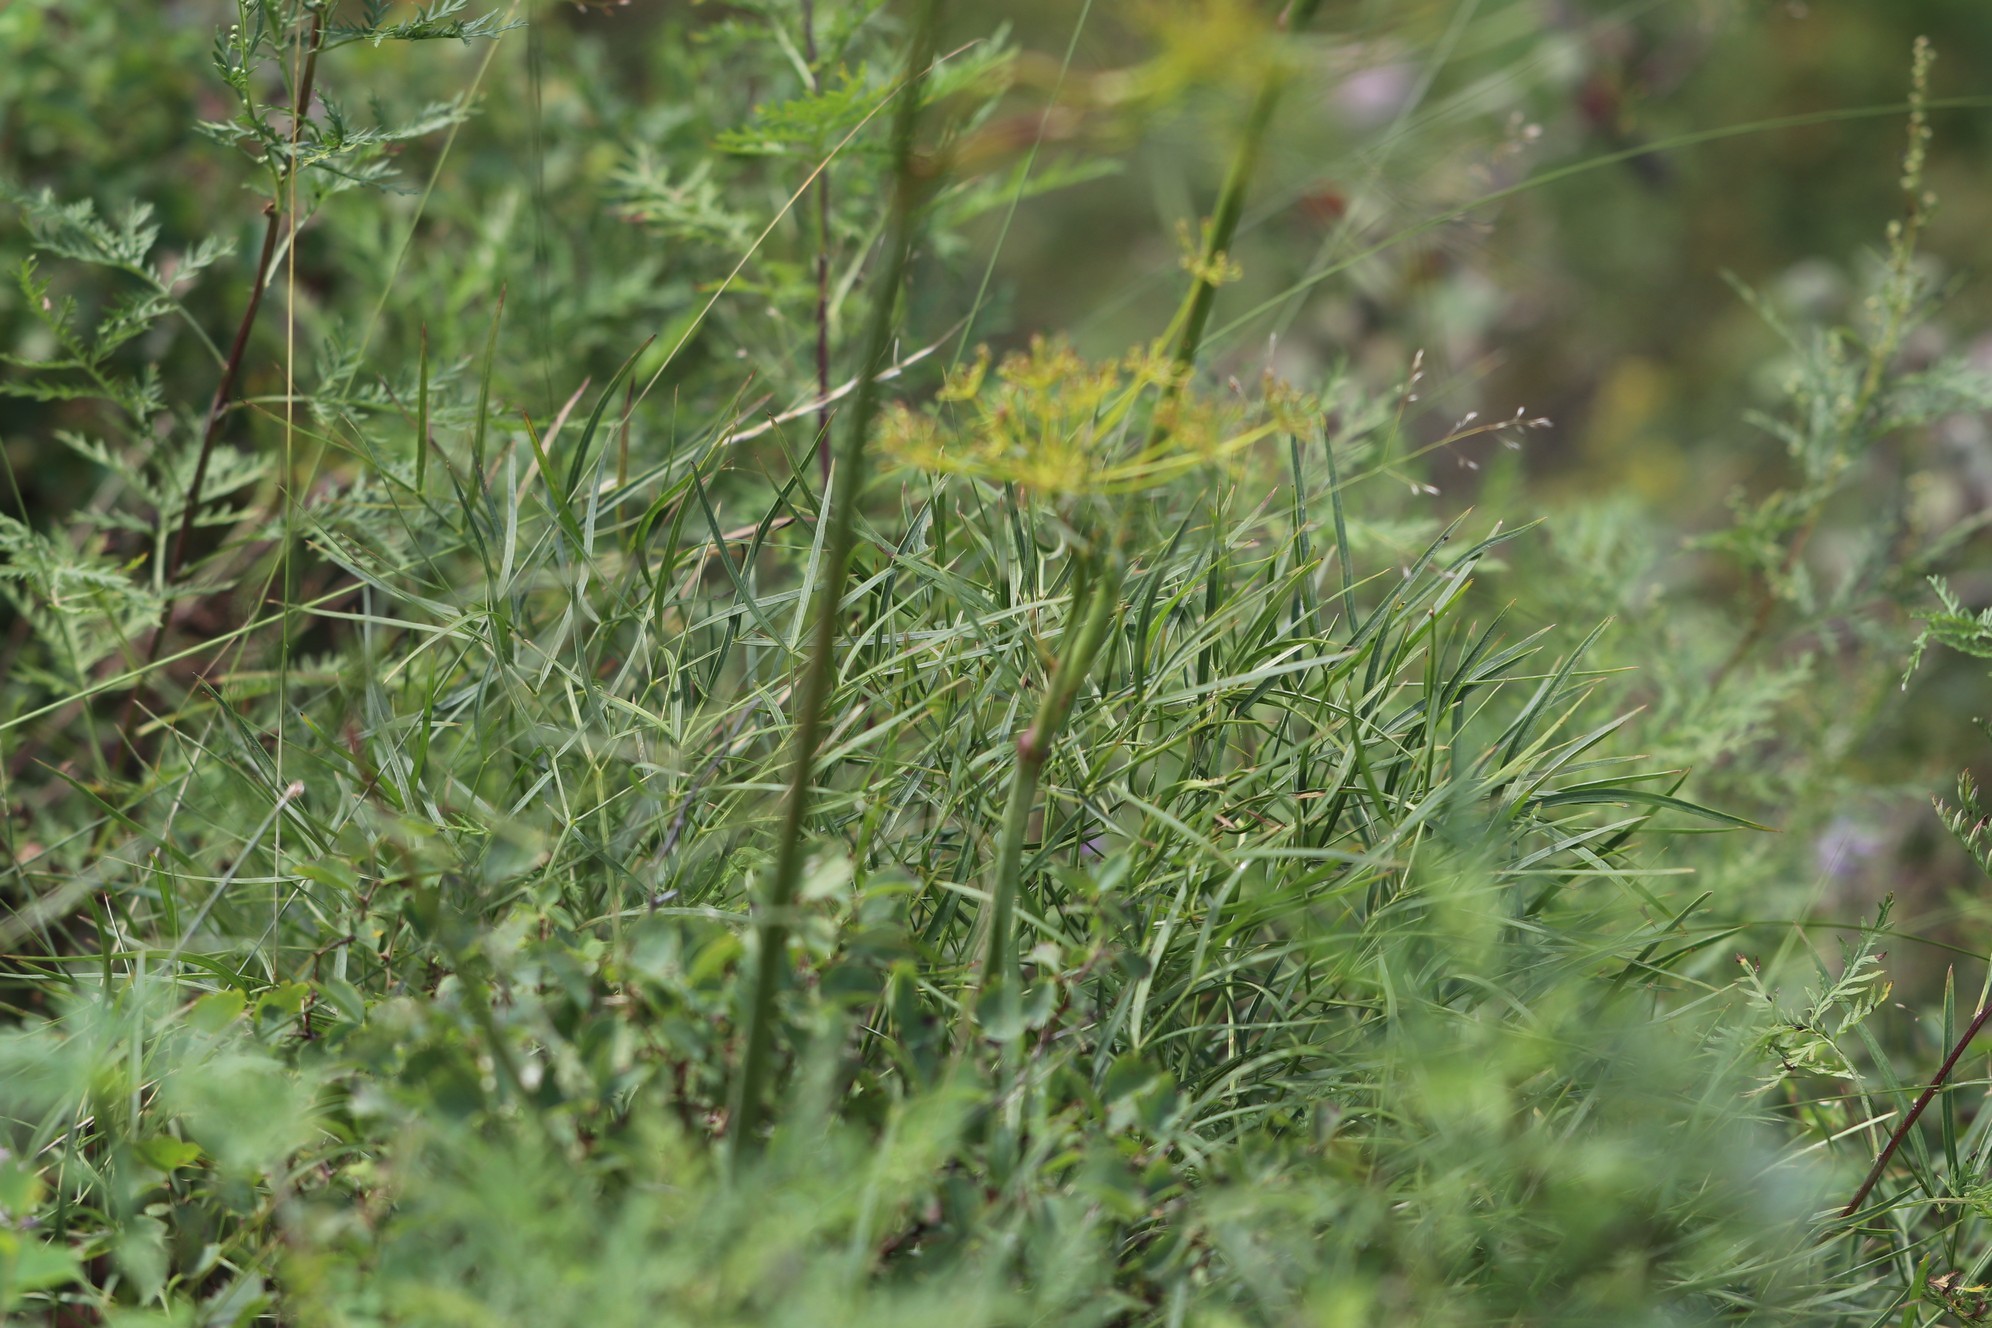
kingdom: Plantae
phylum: Tracheophyta
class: Magnoliopsida
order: Apiales
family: Apiaceae
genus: Peucedanum
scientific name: Peucedanum morisonii
